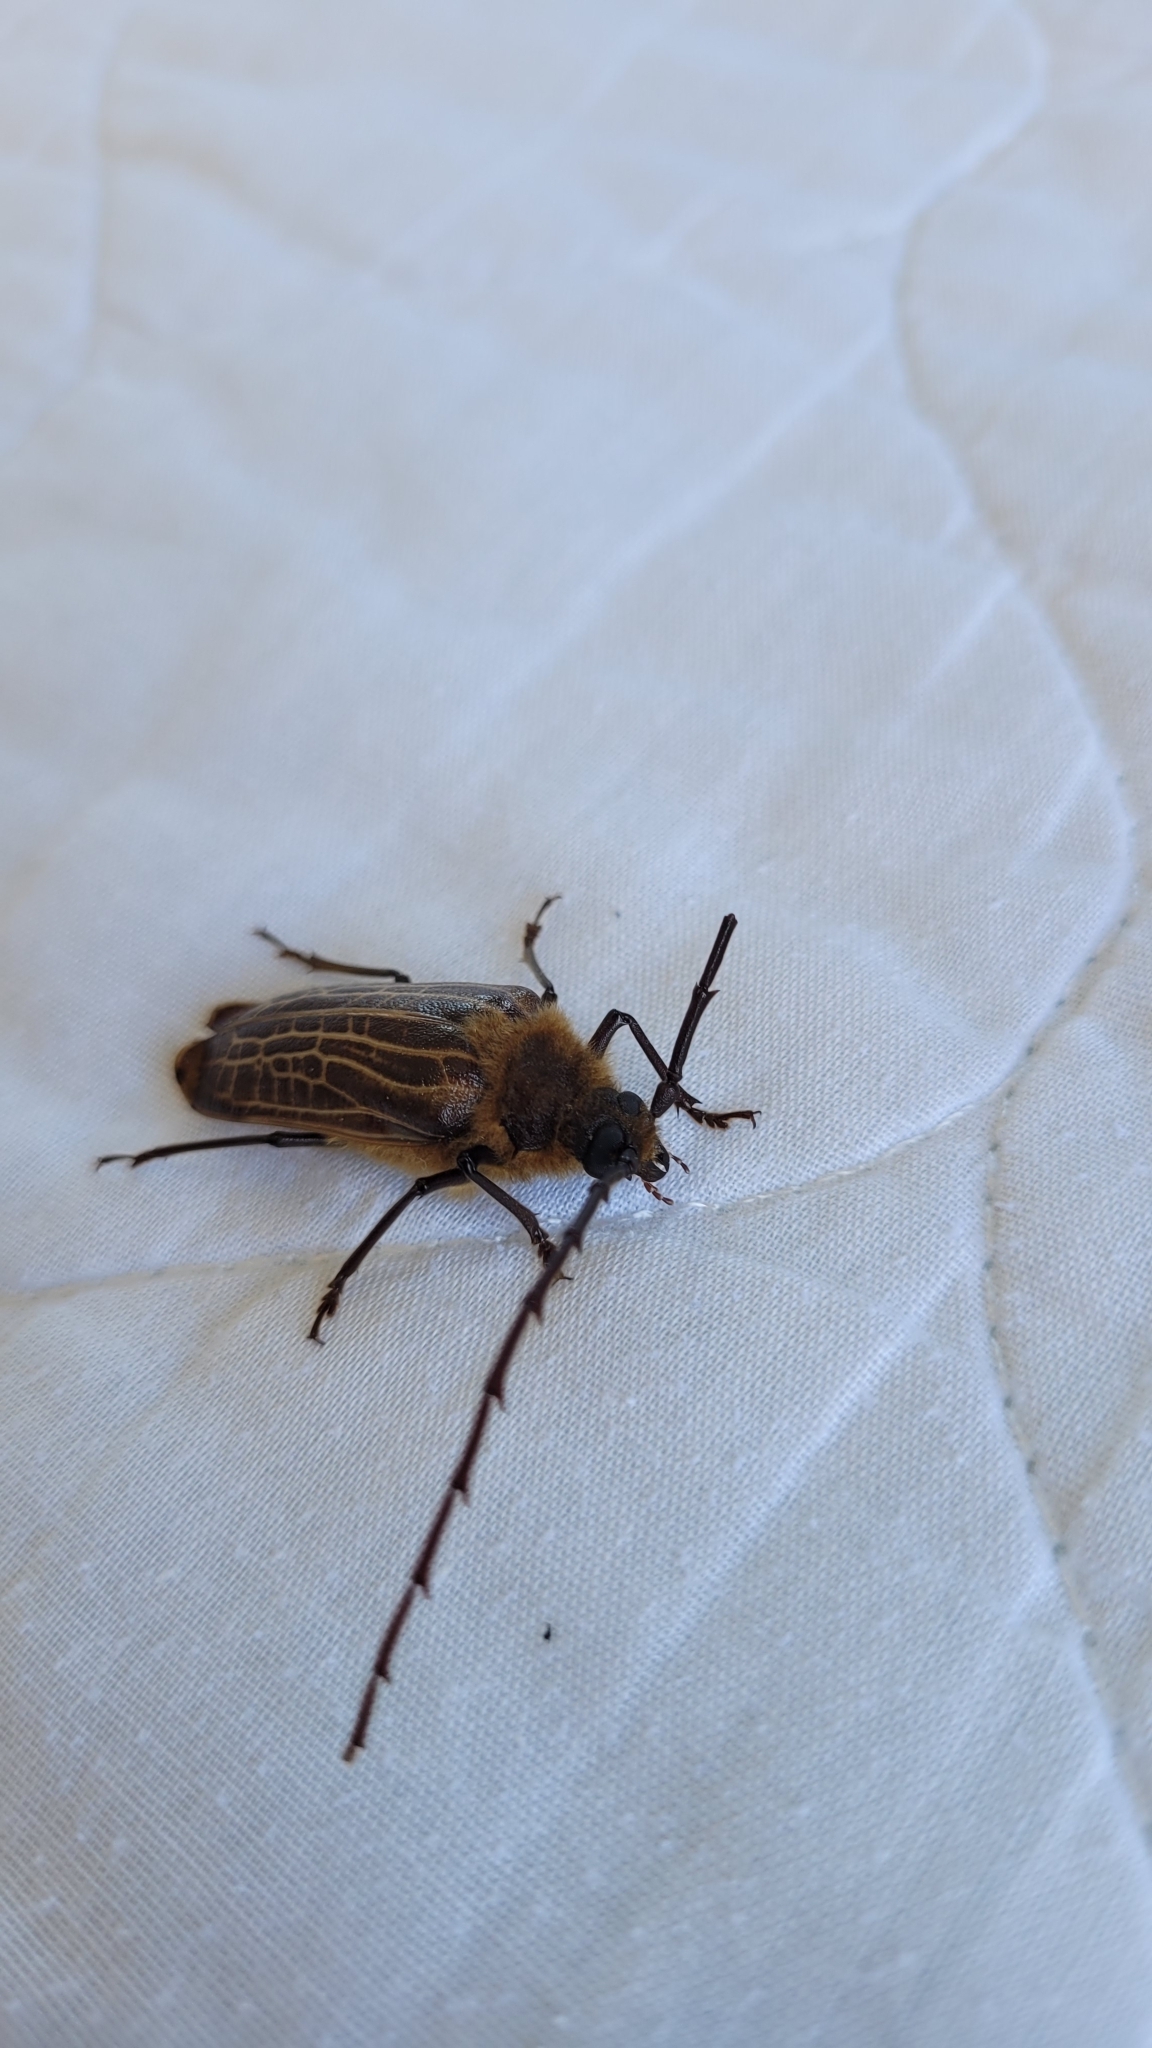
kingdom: Animalia
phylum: Arthropoda
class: Insecta
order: Coleoptera
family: Cerambycidae
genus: Prionoplus
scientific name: Prionoplus reticularis
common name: Huhu beetle
